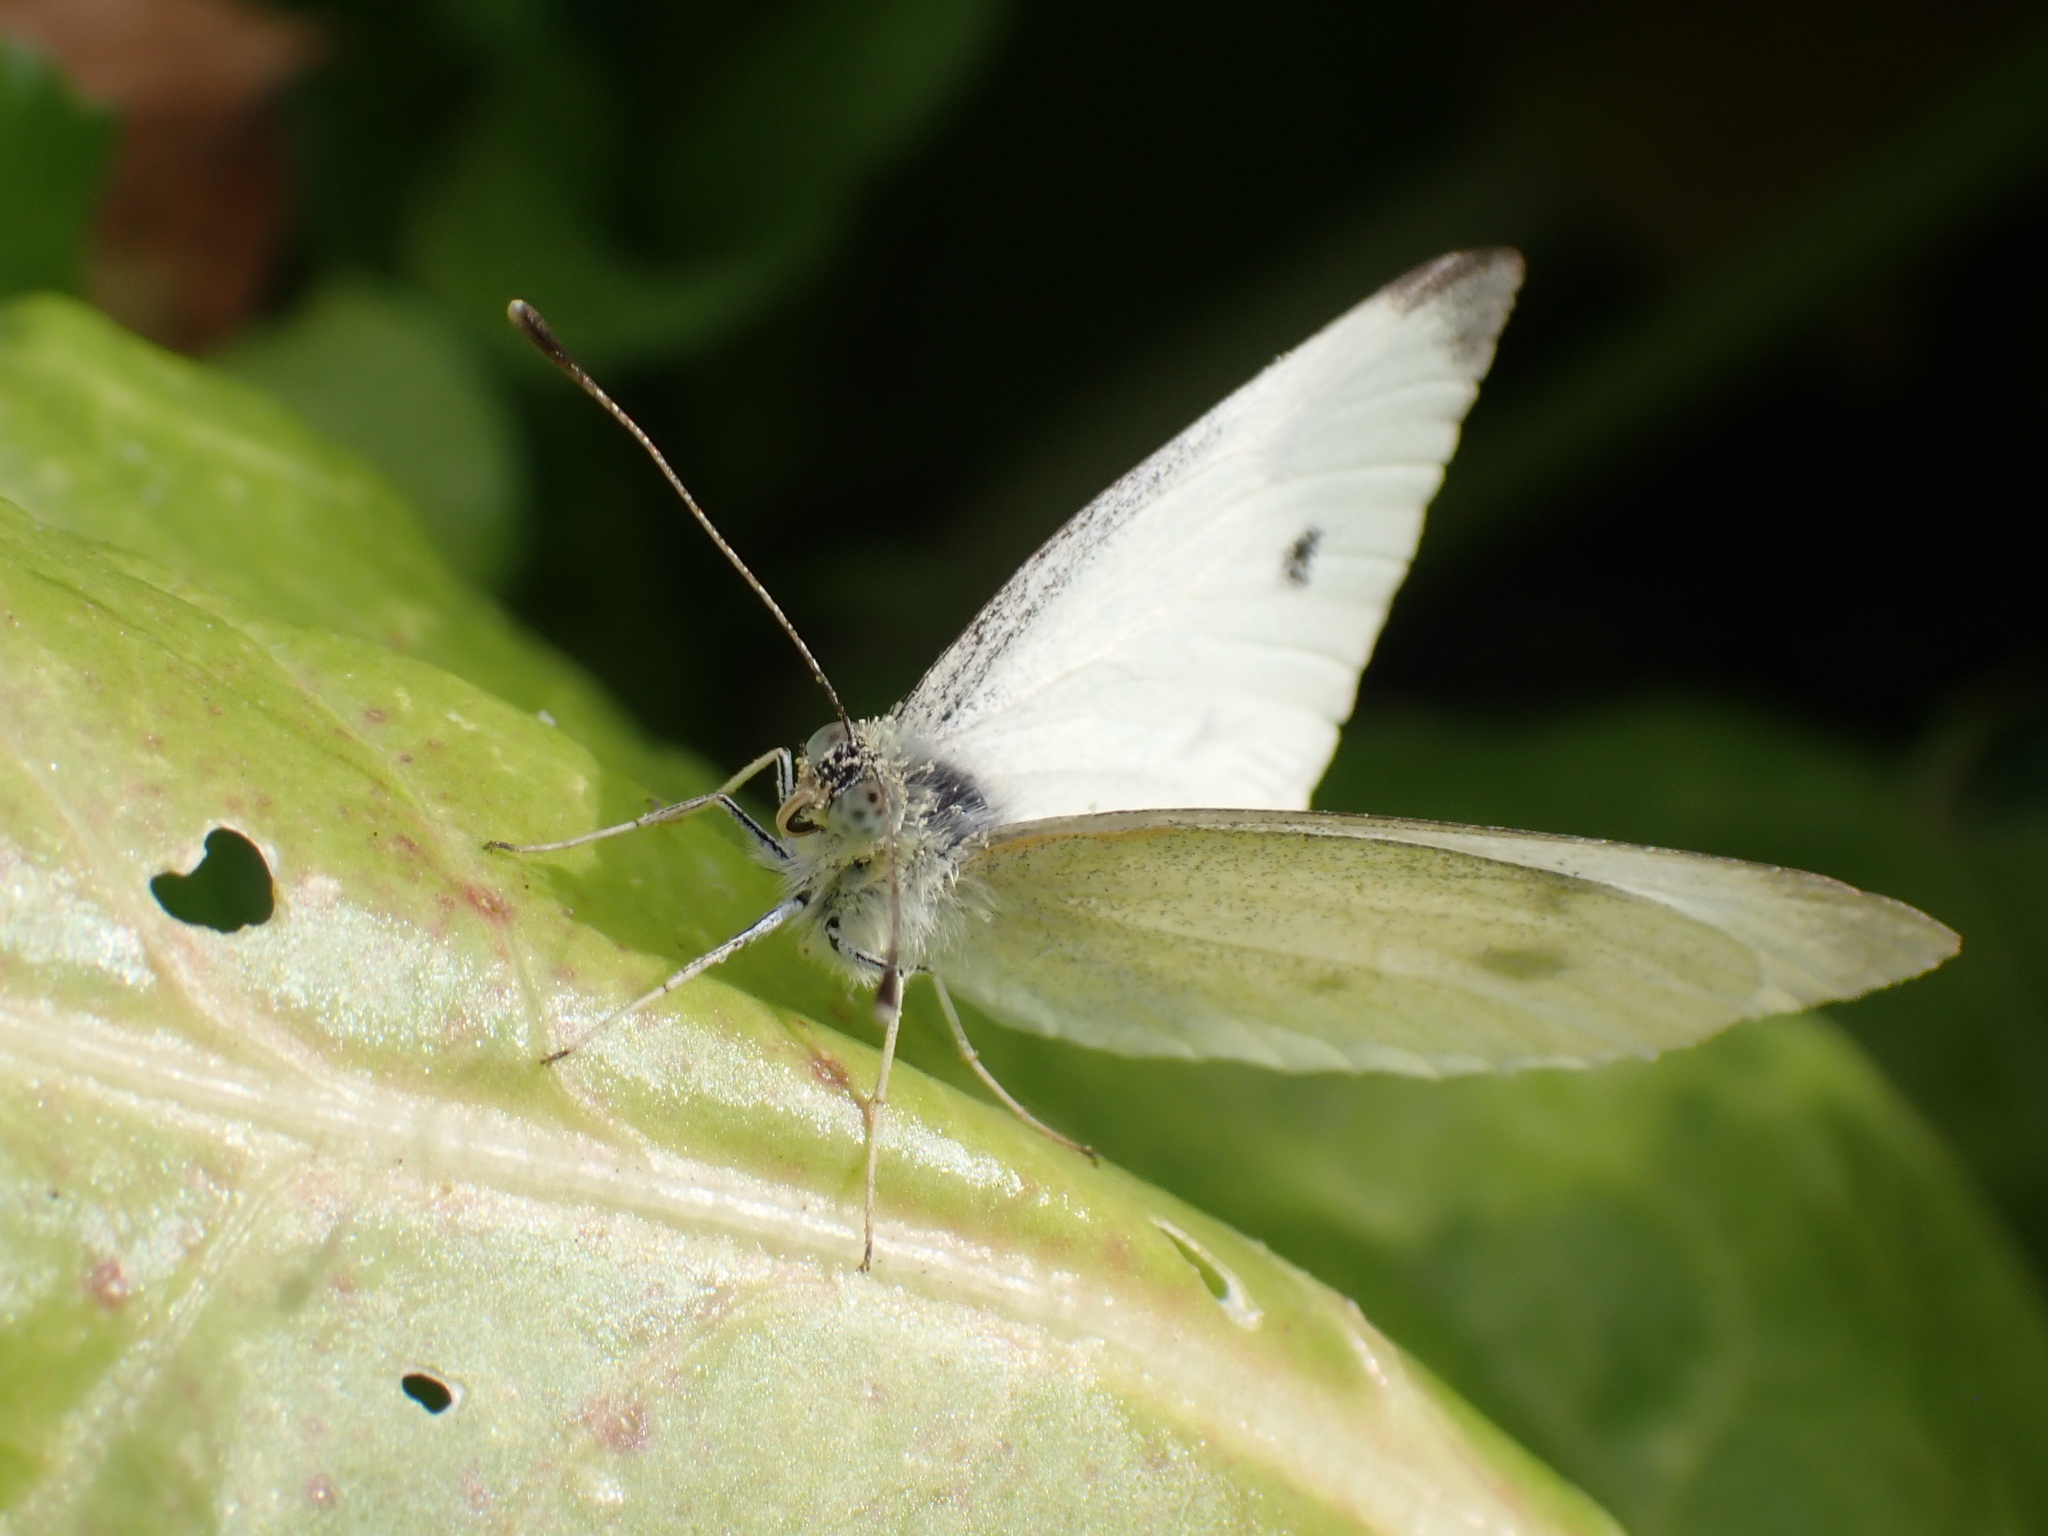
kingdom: Animalia
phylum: Arthropoda
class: Insecta
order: Lepidoptera
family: Pieridae
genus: Pieris
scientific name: Pieris rapae
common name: Small white
